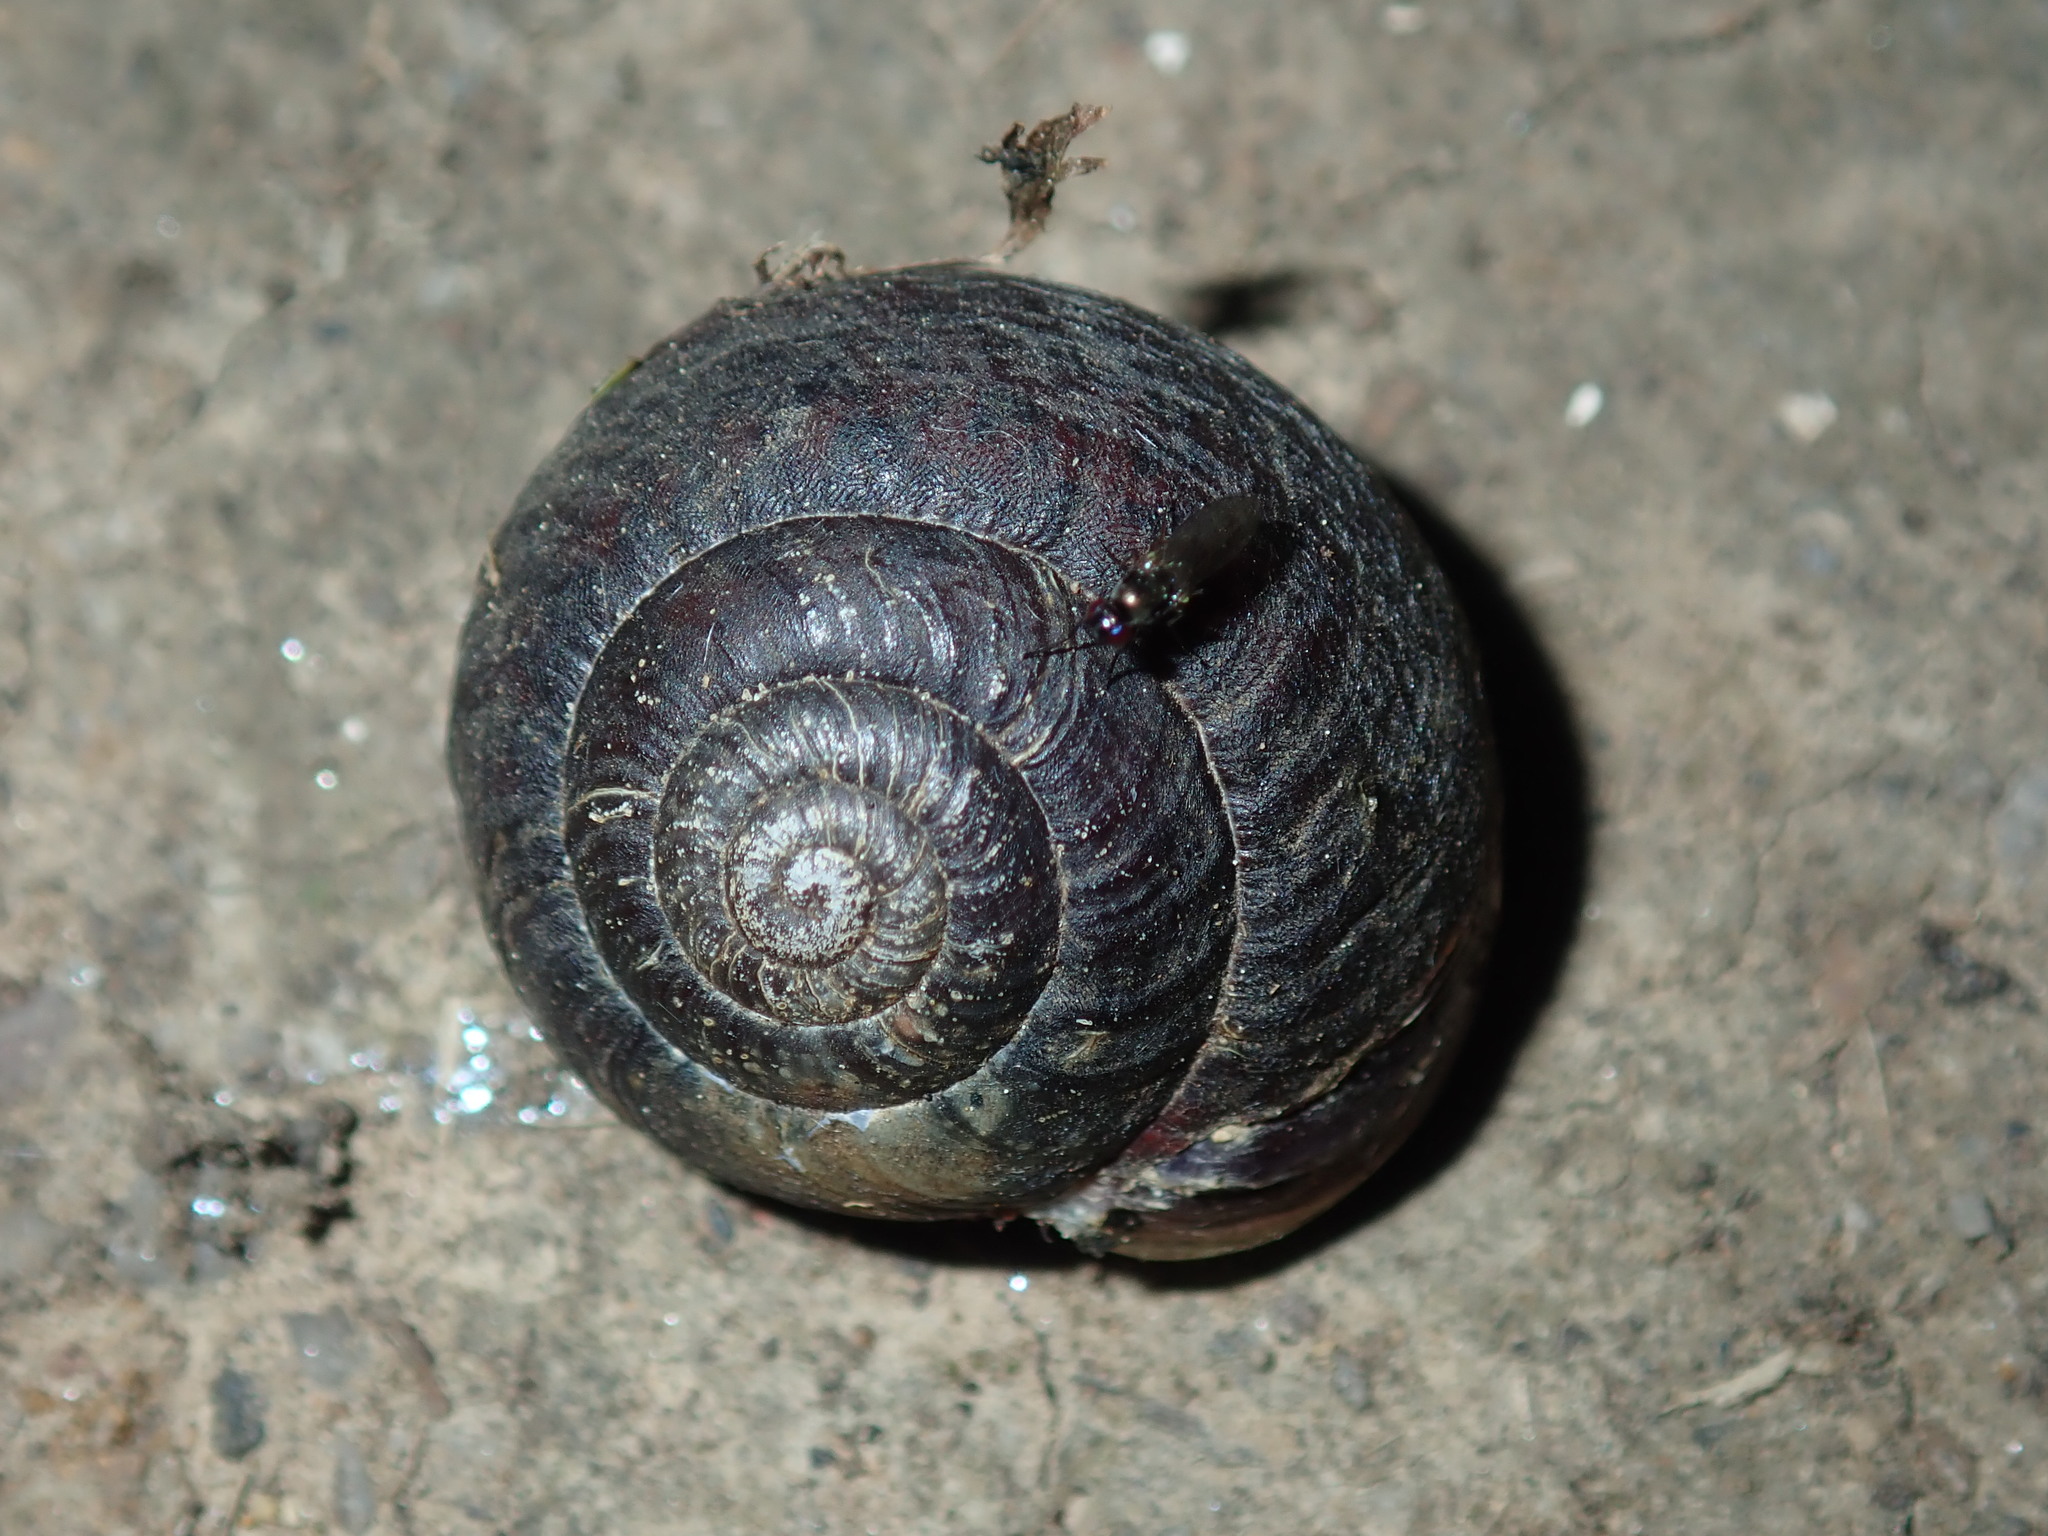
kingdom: Animalia
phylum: Mollusca
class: Gastropoda
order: Stylommatophora
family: Camaenidae
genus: Sauroconcha
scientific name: Sauroconcha sheai
